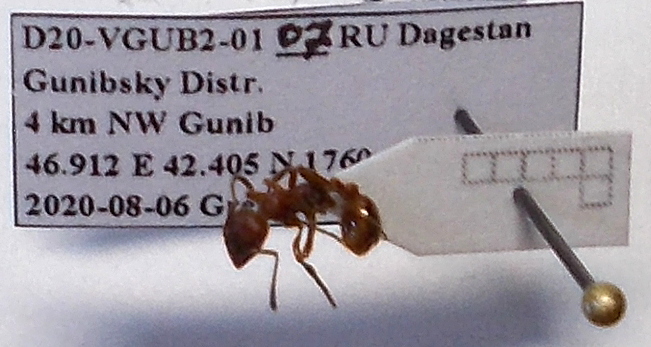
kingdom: Animalia
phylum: Arthropoda
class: Insecta
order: Hymenoptera
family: Formicidae
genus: Manica
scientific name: Manica rubida
